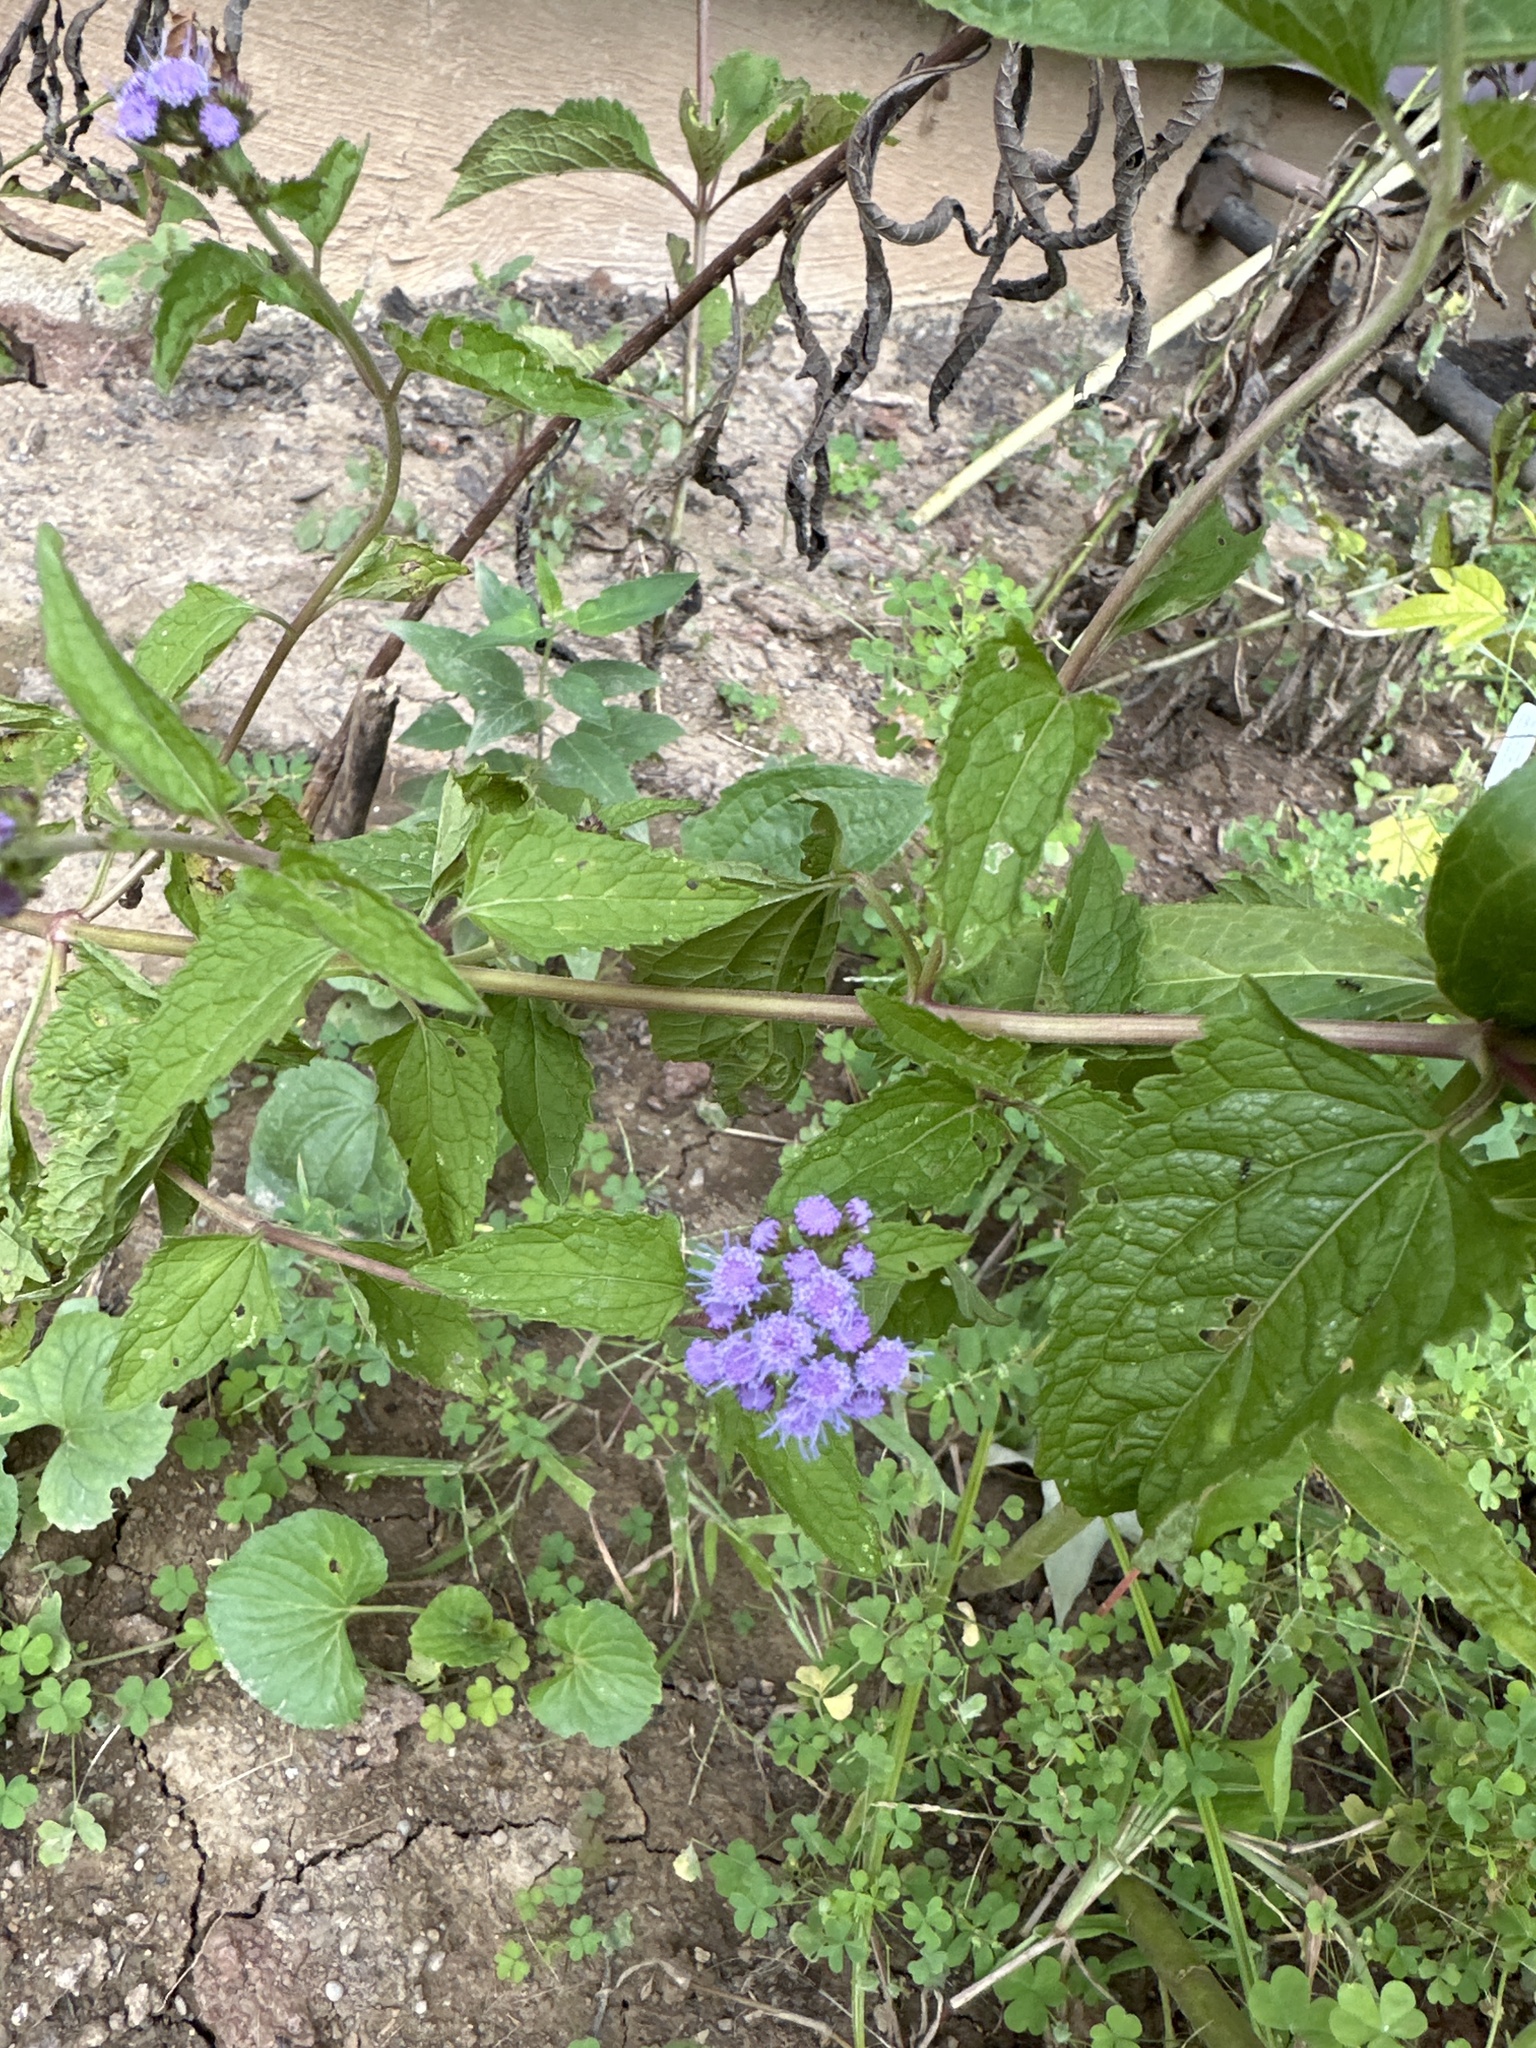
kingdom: Plantae
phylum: Tracheophyta
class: Magnoliopsida
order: Asterales
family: Asteraceae
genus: Conoclinium
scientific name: Conoclinium coelestinum
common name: Blue mistflower
